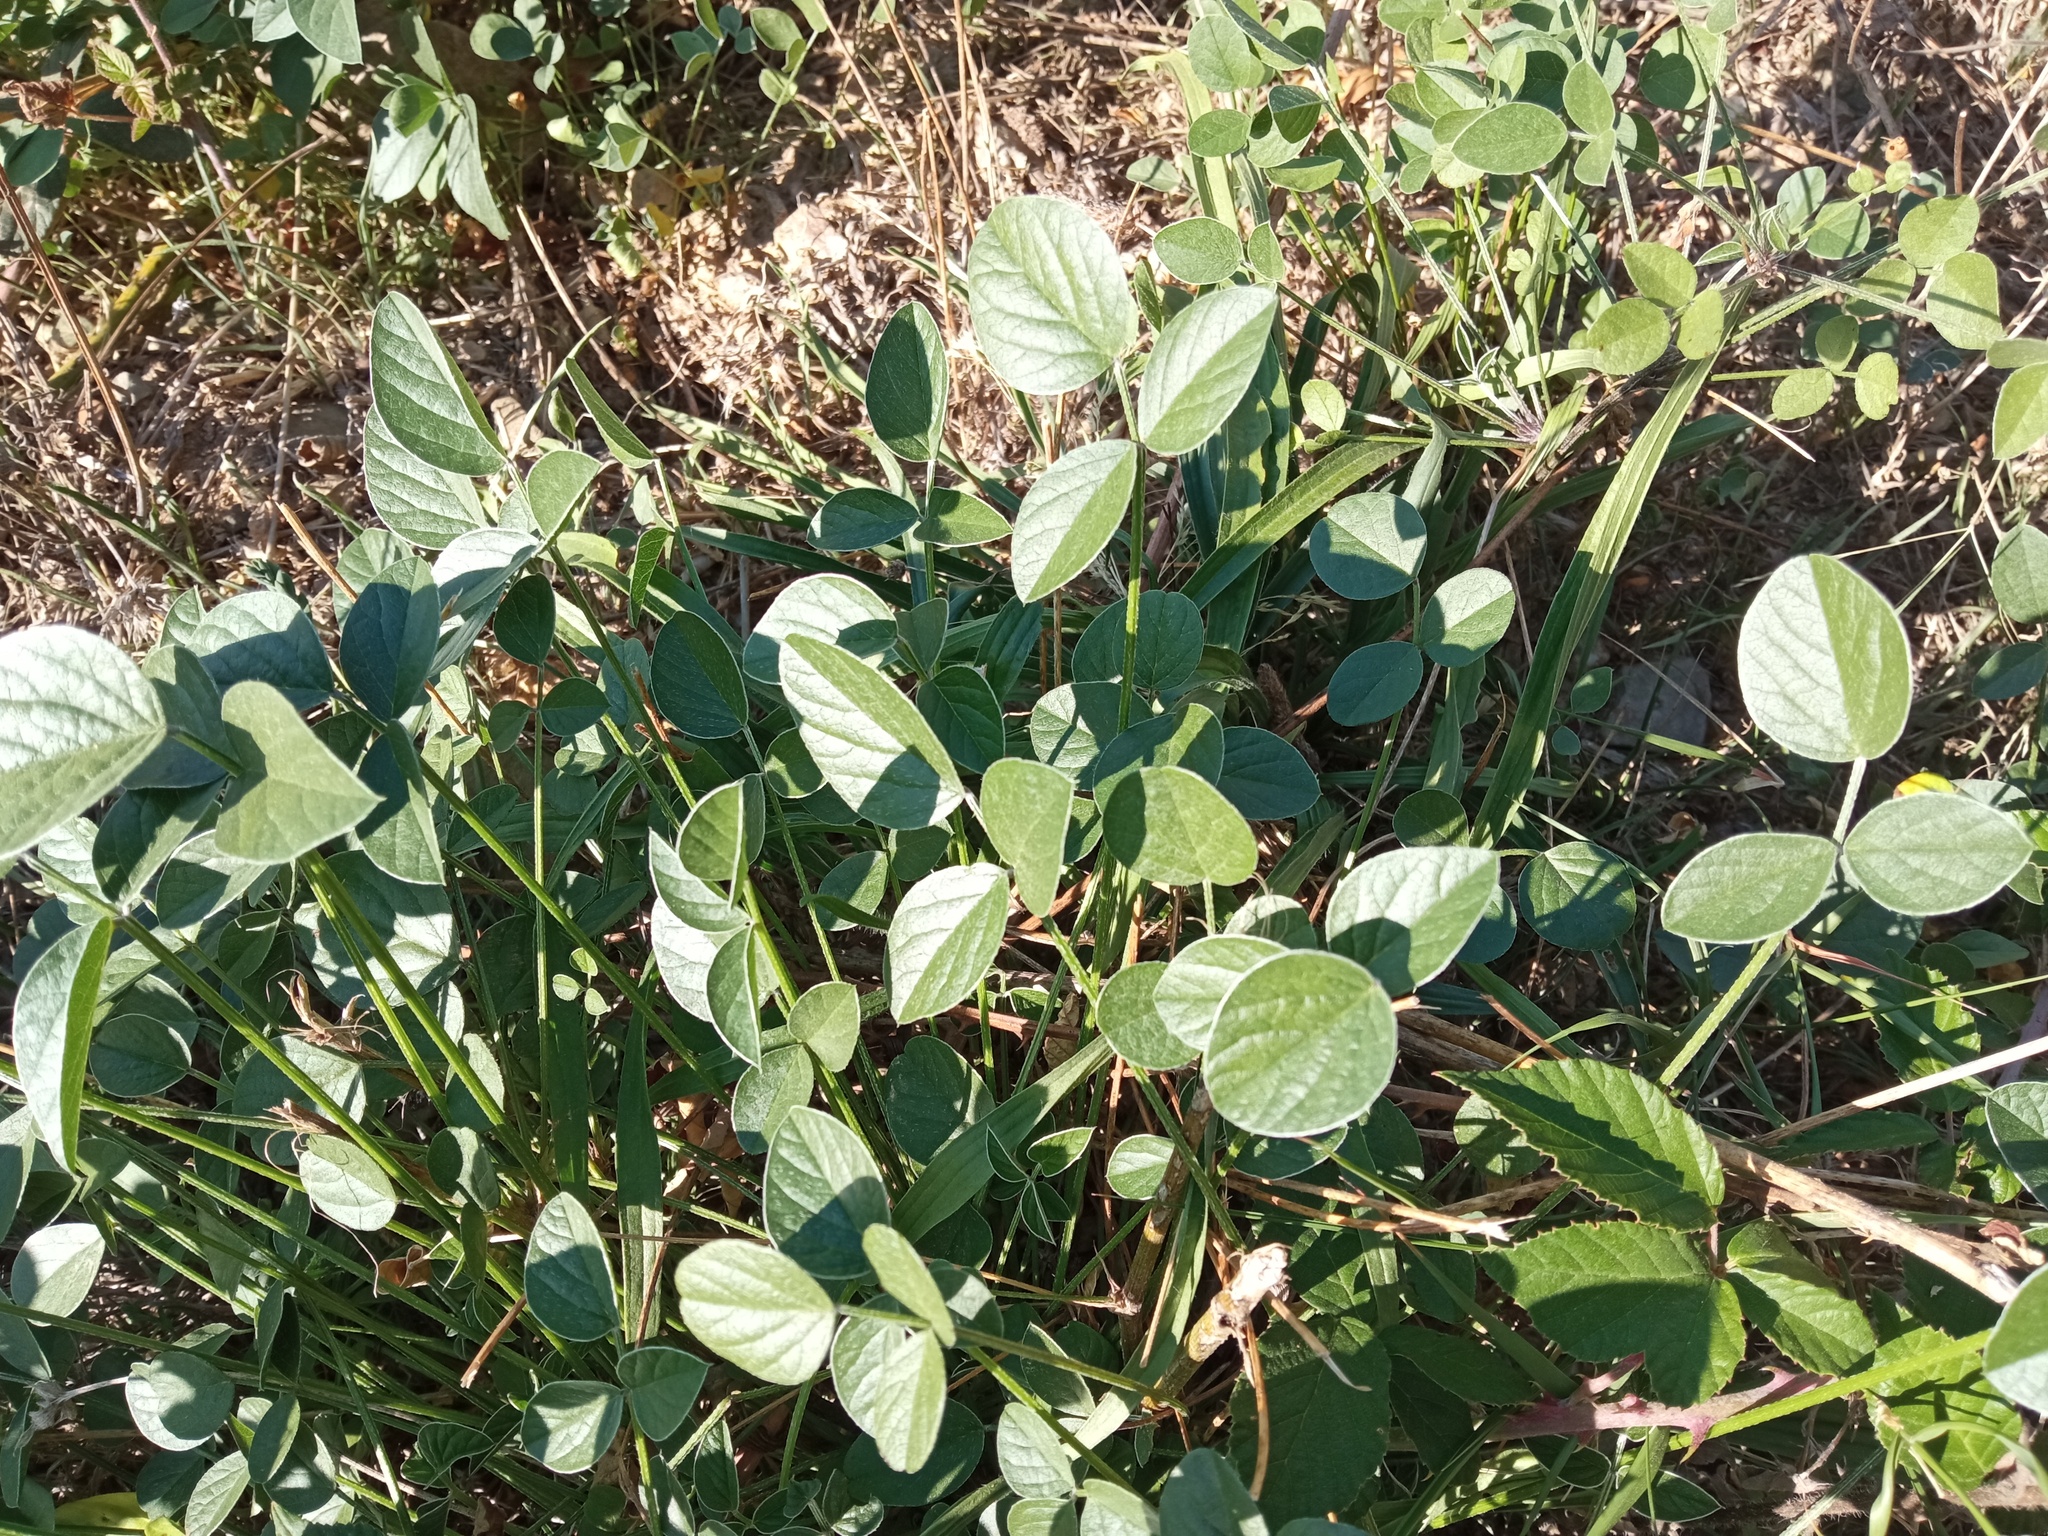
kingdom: Plantae
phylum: Tracheophyta
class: Magnoliopsida
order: Fabales
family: Fabaceae
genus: Bituminaria
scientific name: Bituminaria bituminosa
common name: Arabian pea
